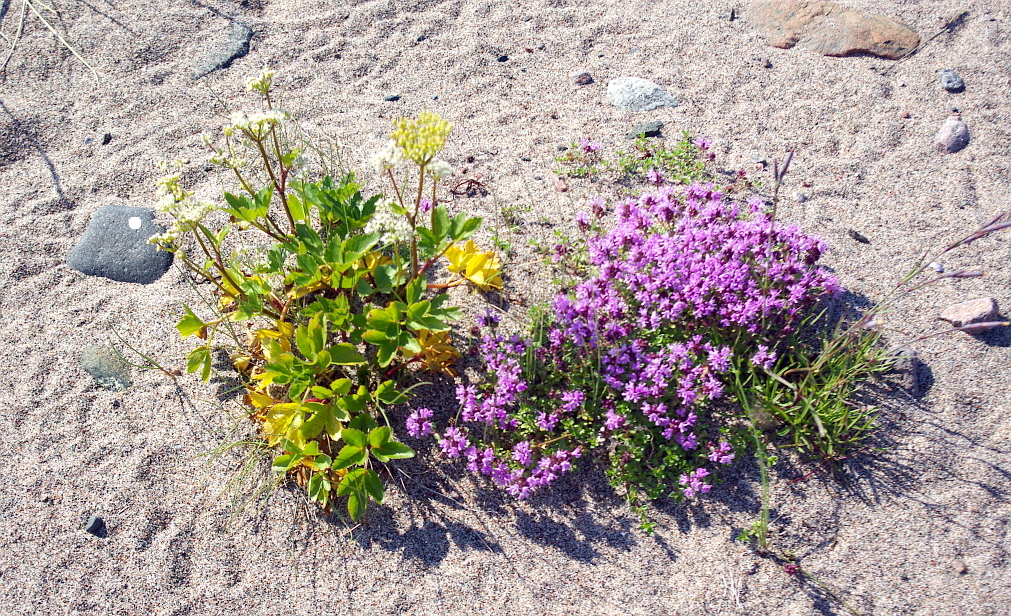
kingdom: Plantae
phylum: Tracheophyta
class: Magnoliopsida
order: Apiales
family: Apiaceae
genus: Ligusticum
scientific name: Ligusticum scothicum
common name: Beach lovage
